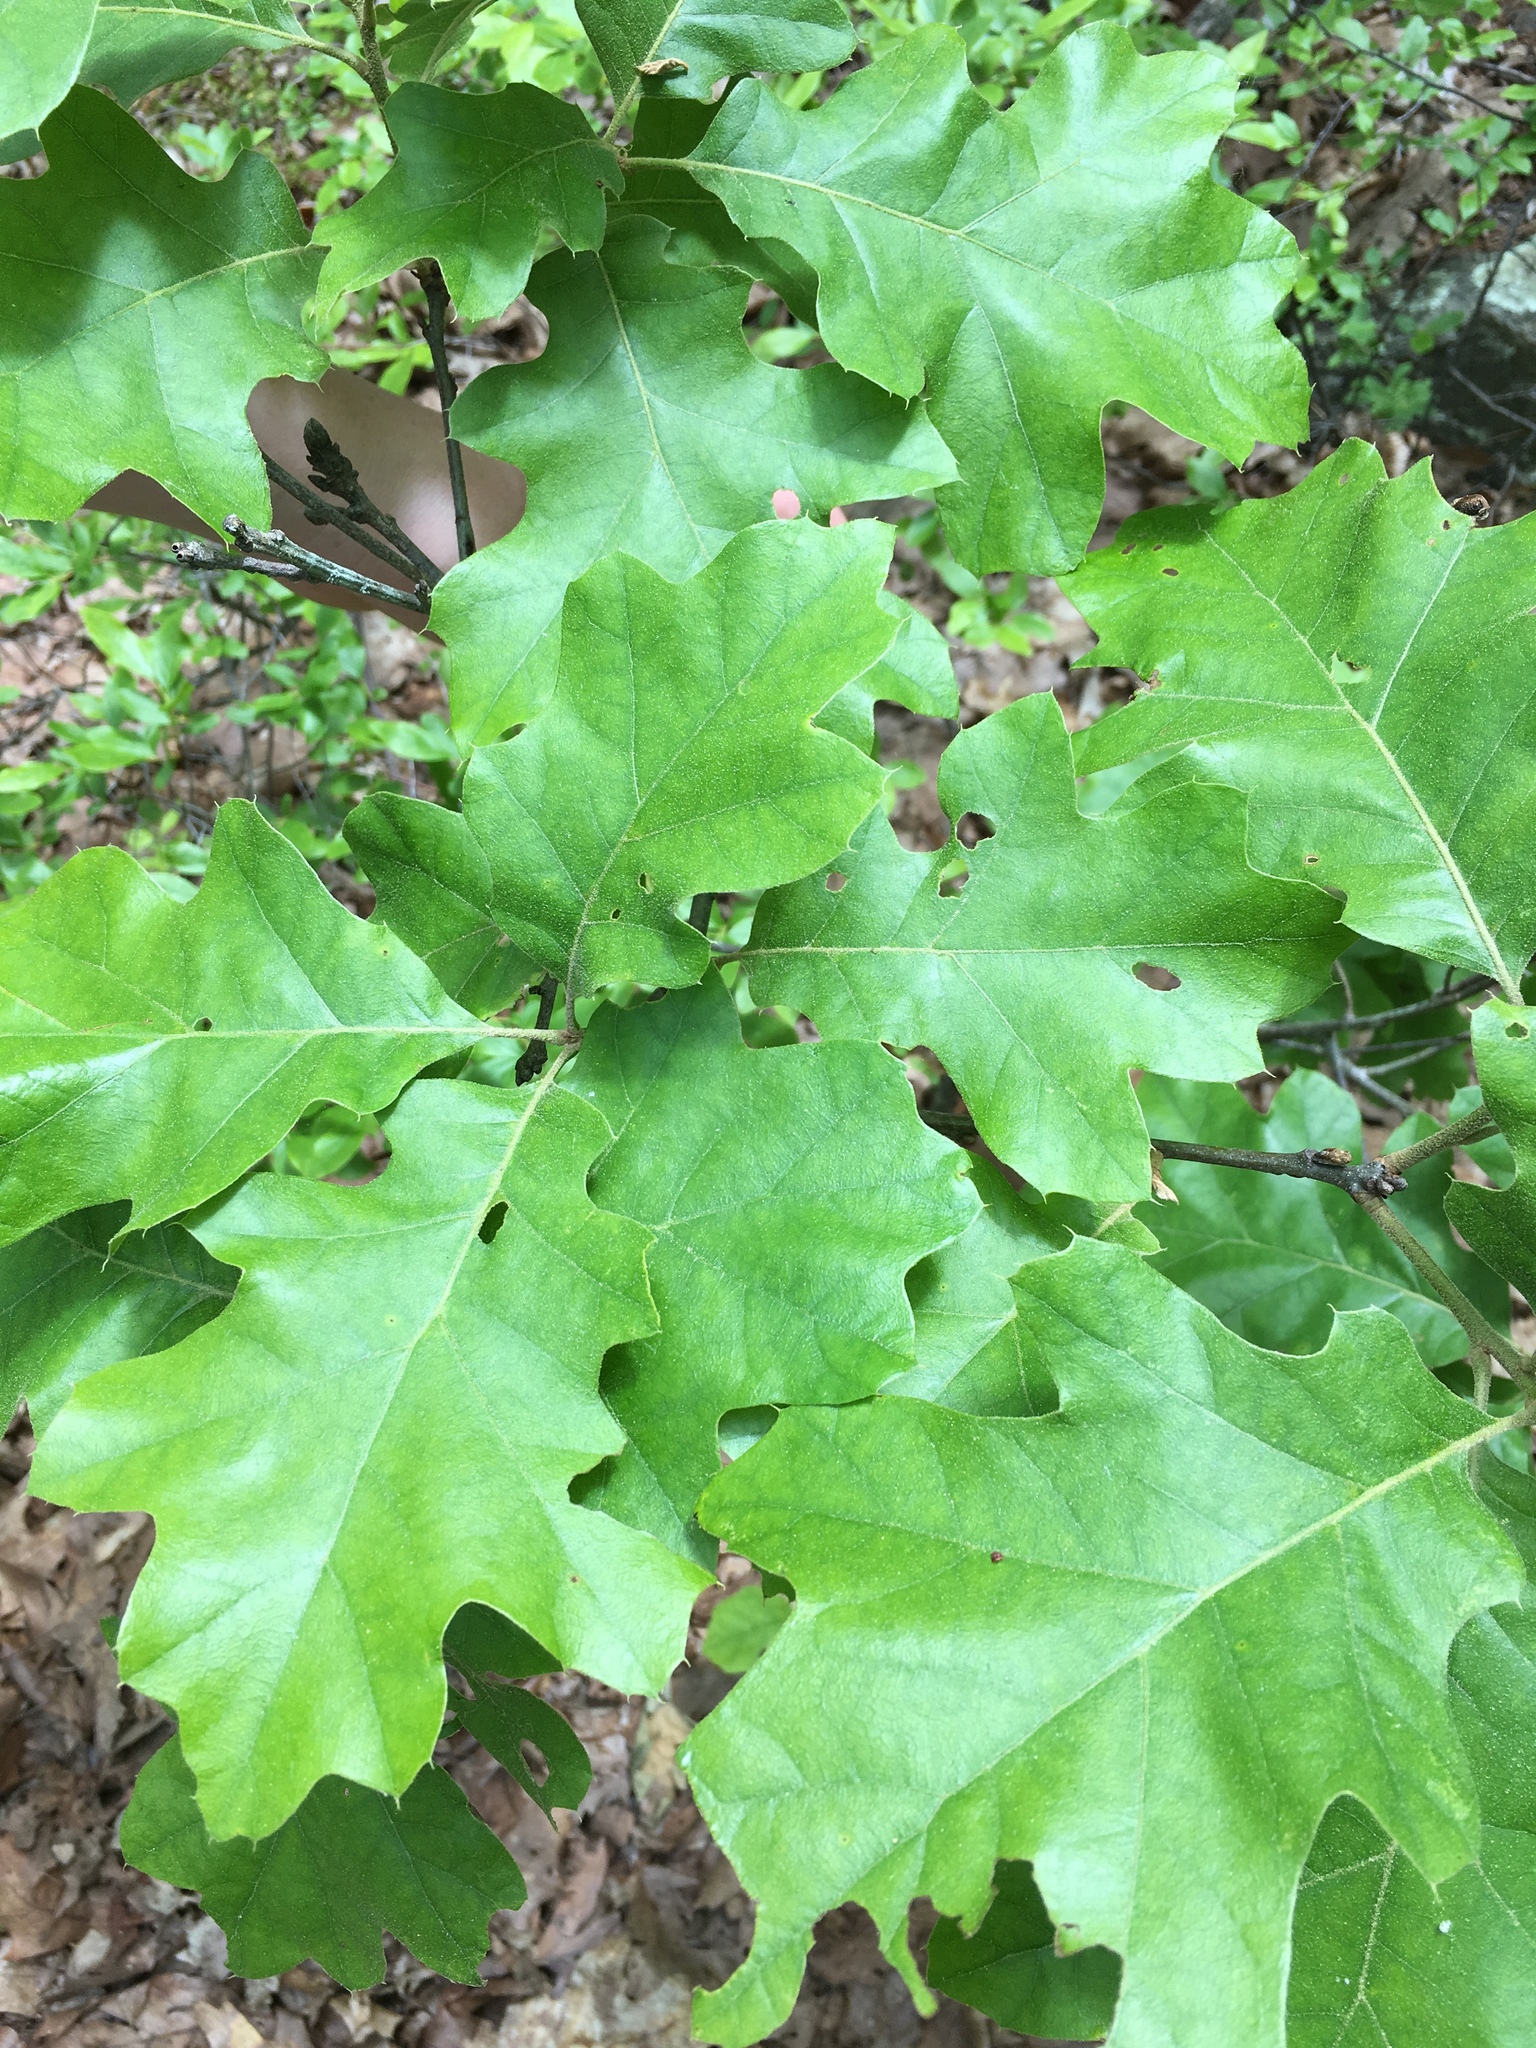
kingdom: Plantae
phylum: Tracheophyta
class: Magnoliopsida
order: Fagales
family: Fagaceae
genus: Quercus
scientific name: Quercus velutina
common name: Black oak
